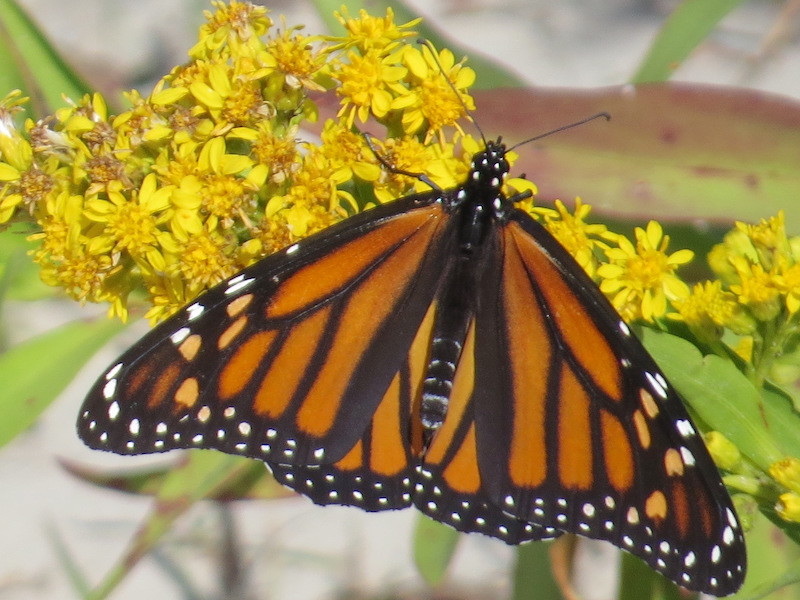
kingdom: Animalia
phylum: Arthropoda
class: Insecta
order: Lepidoptera
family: Nymphalidae
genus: Danaus
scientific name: Danaus plexippus
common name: Monarch
